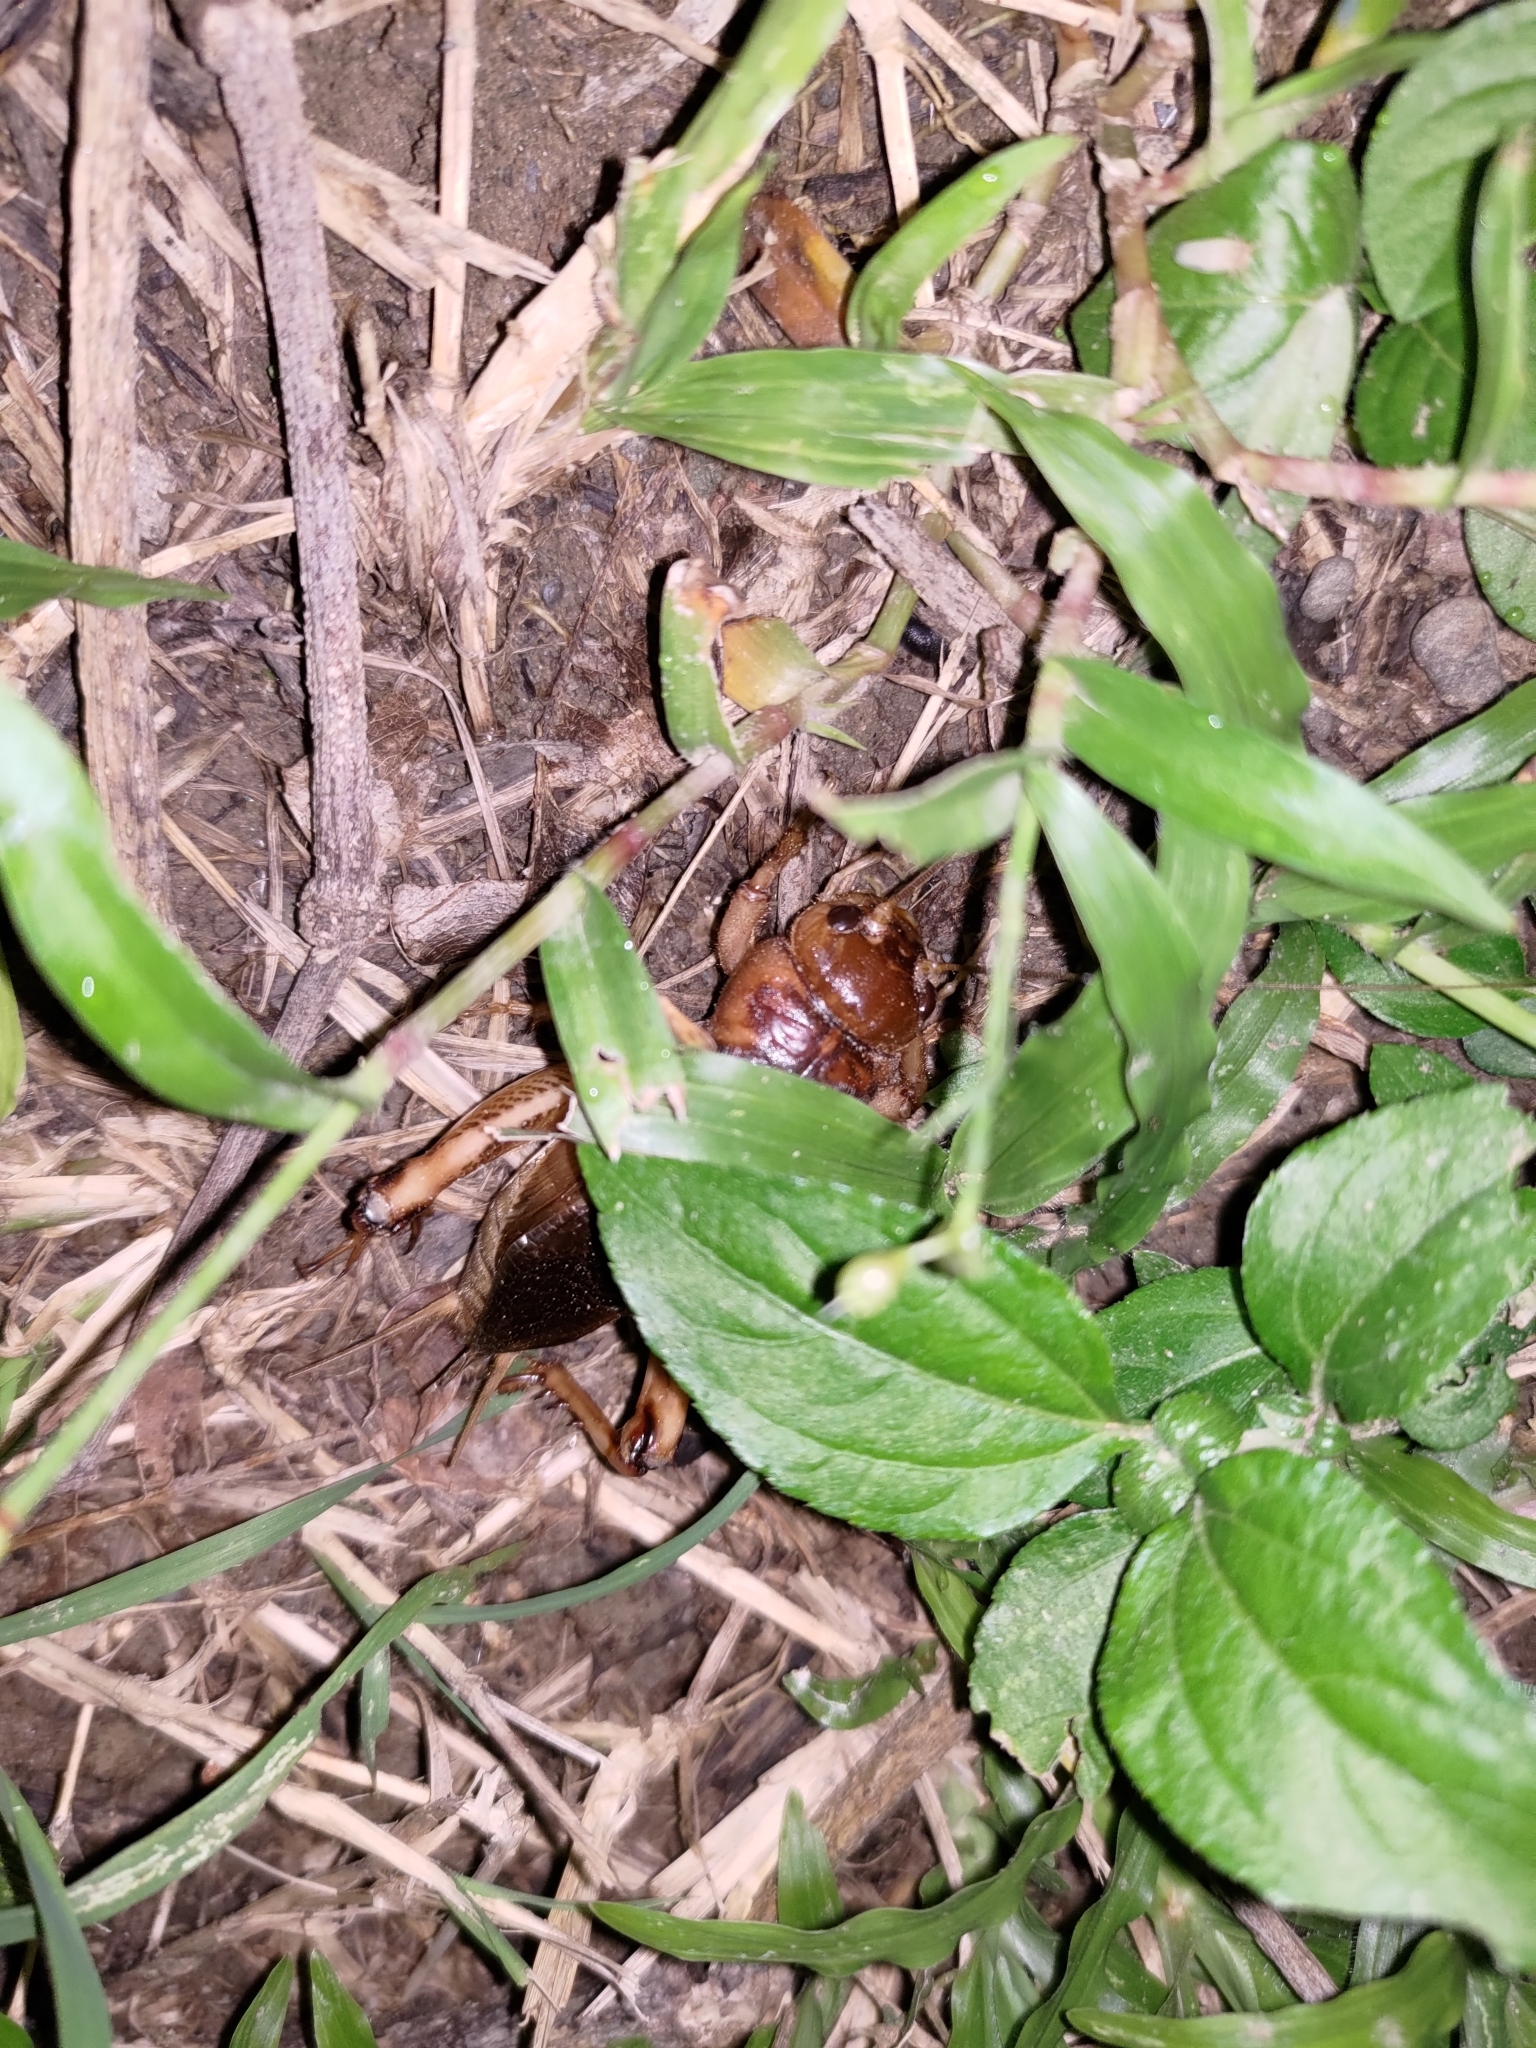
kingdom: Animalia
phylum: Arthropoda
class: Insecta
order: Orthoptera
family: Gryllidae
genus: Tarbinskiellus
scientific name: Tarbinskiellus portentosus
